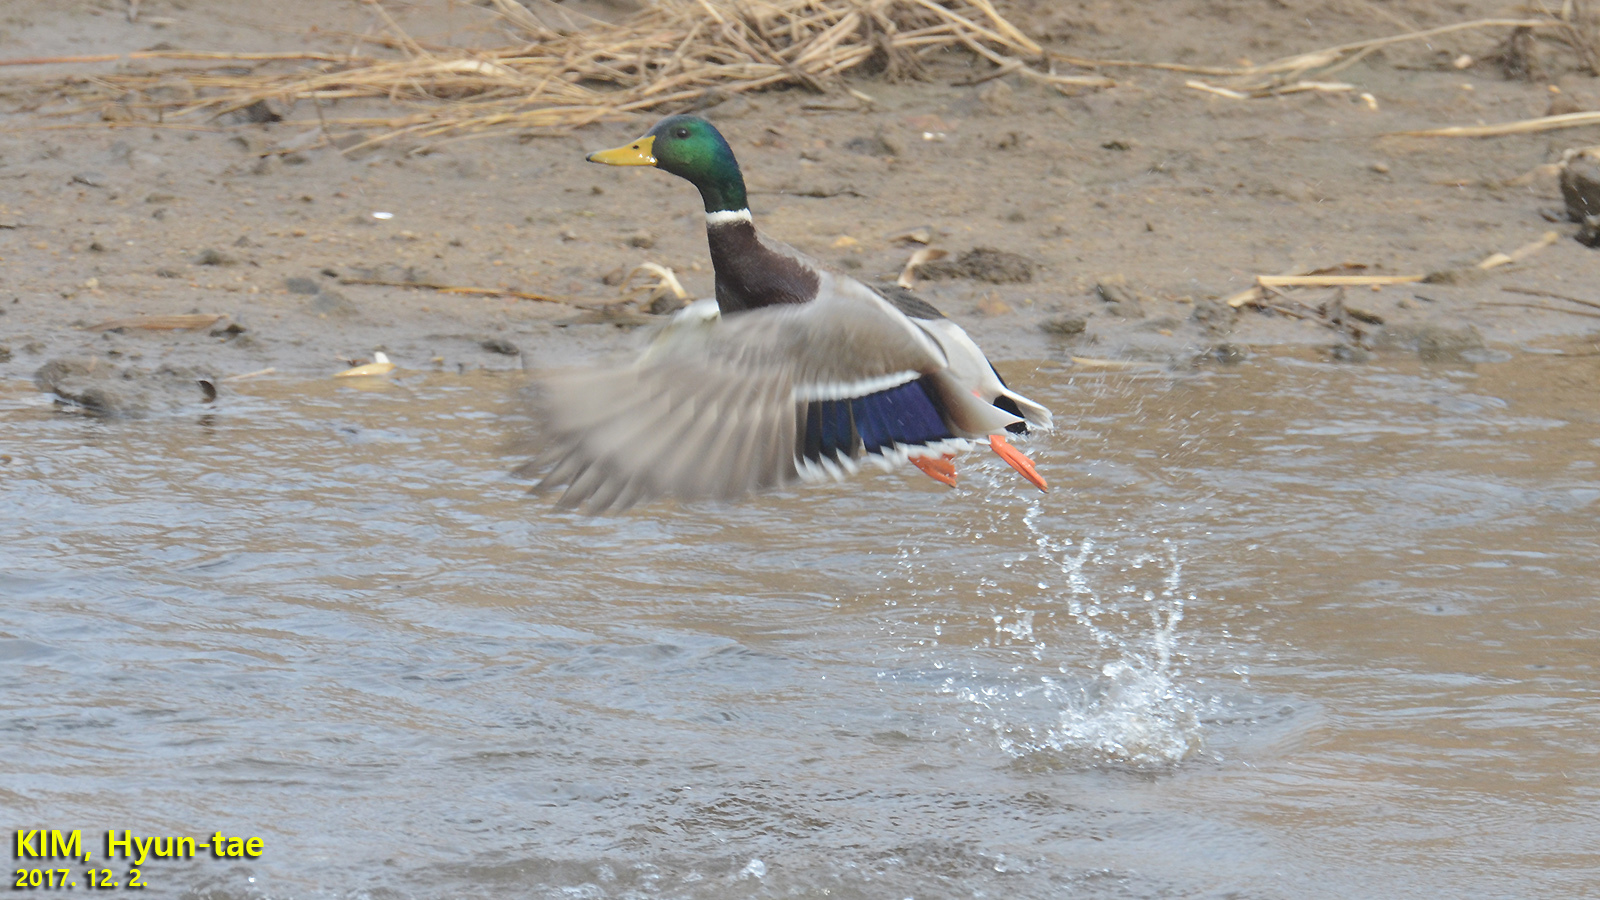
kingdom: Animalia
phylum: Chordata
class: Aves
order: Anseriformes
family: Anatidae
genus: Anas
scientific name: Anas platyrhynchos
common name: Mallard
